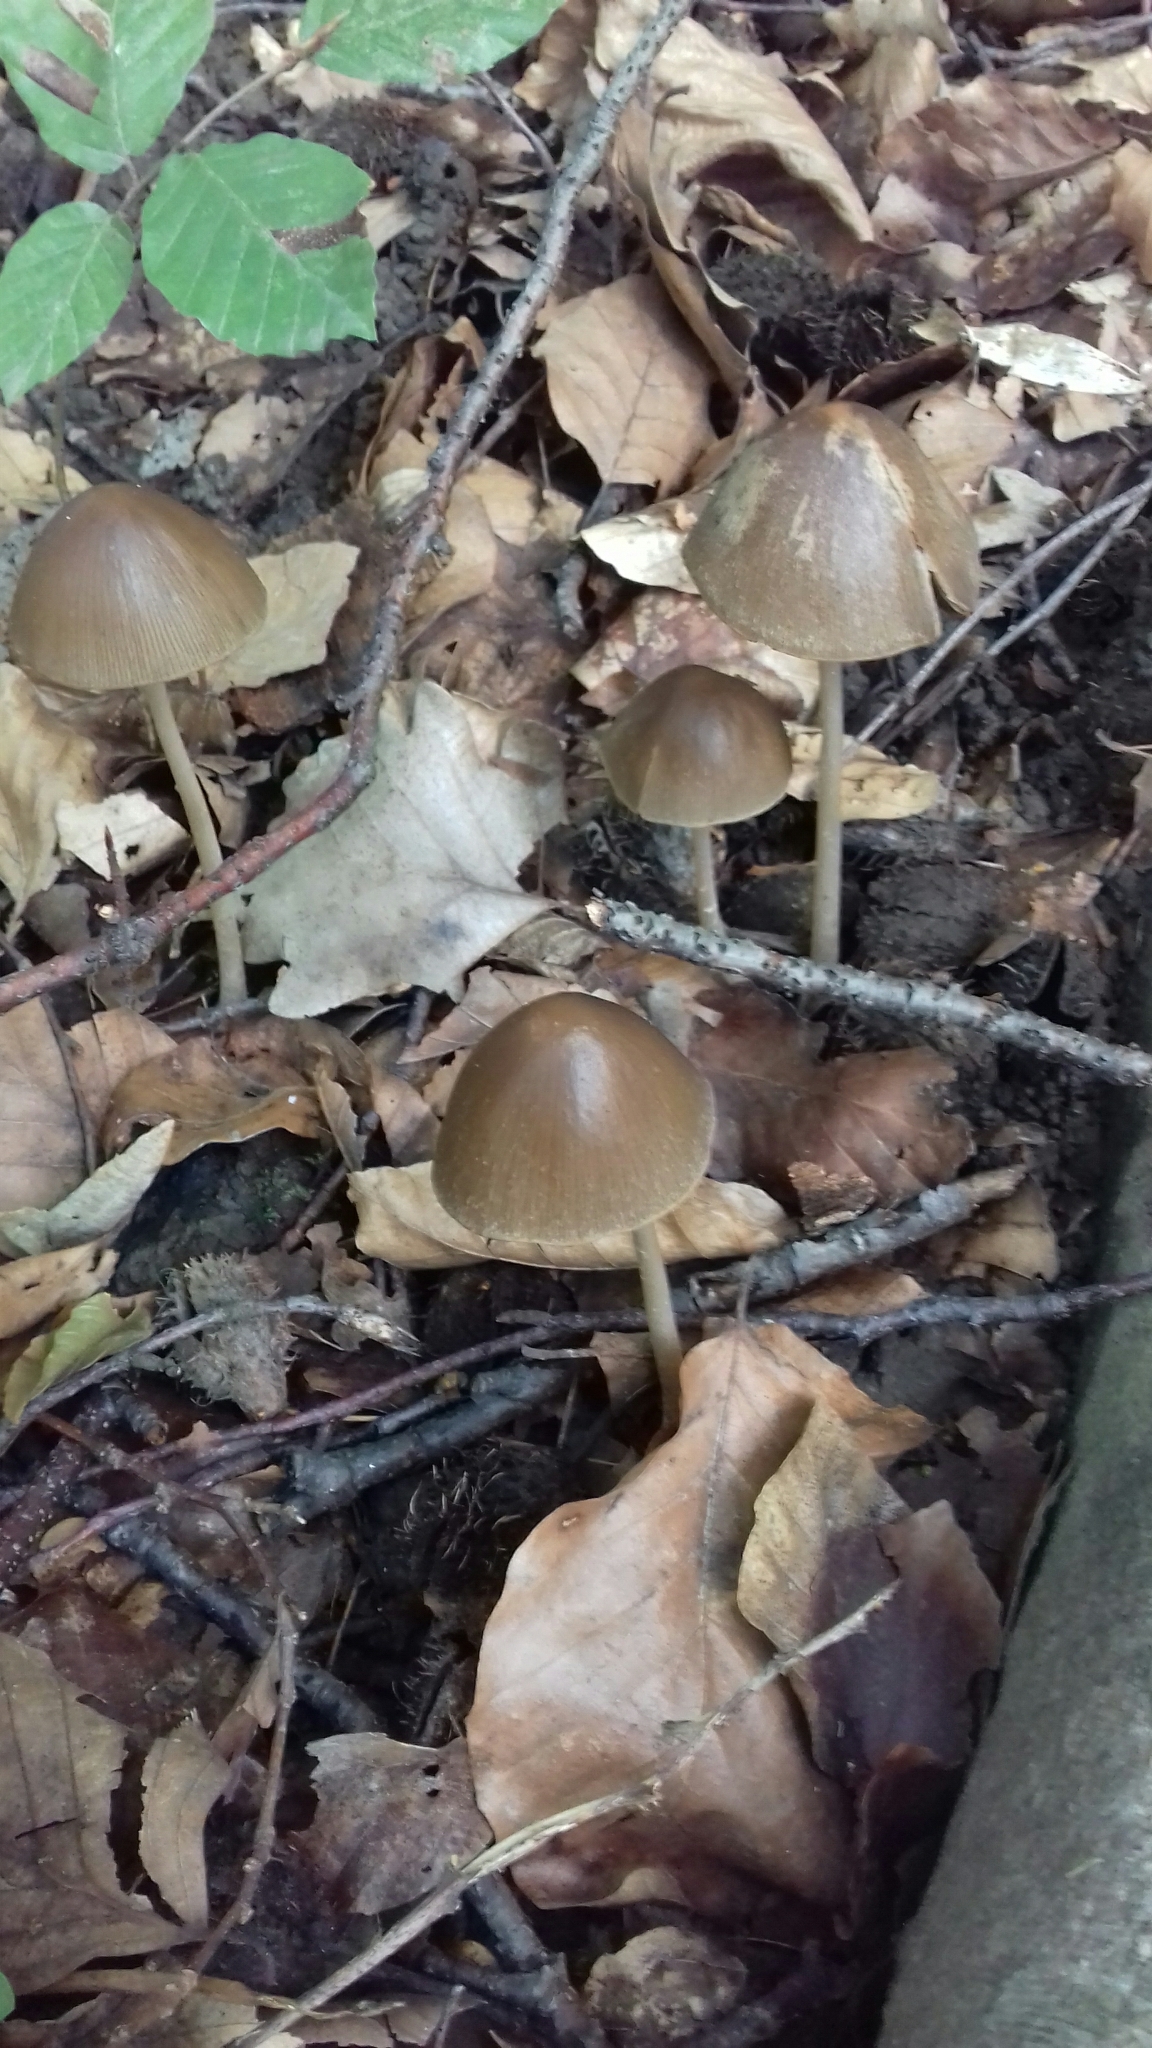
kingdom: Fungi
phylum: Basidiomycota
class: Agaricomycetes
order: Agaricales
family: Psathyrellaceae
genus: Parasola
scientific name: Parasola conopilea
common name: Conical brittlestem
